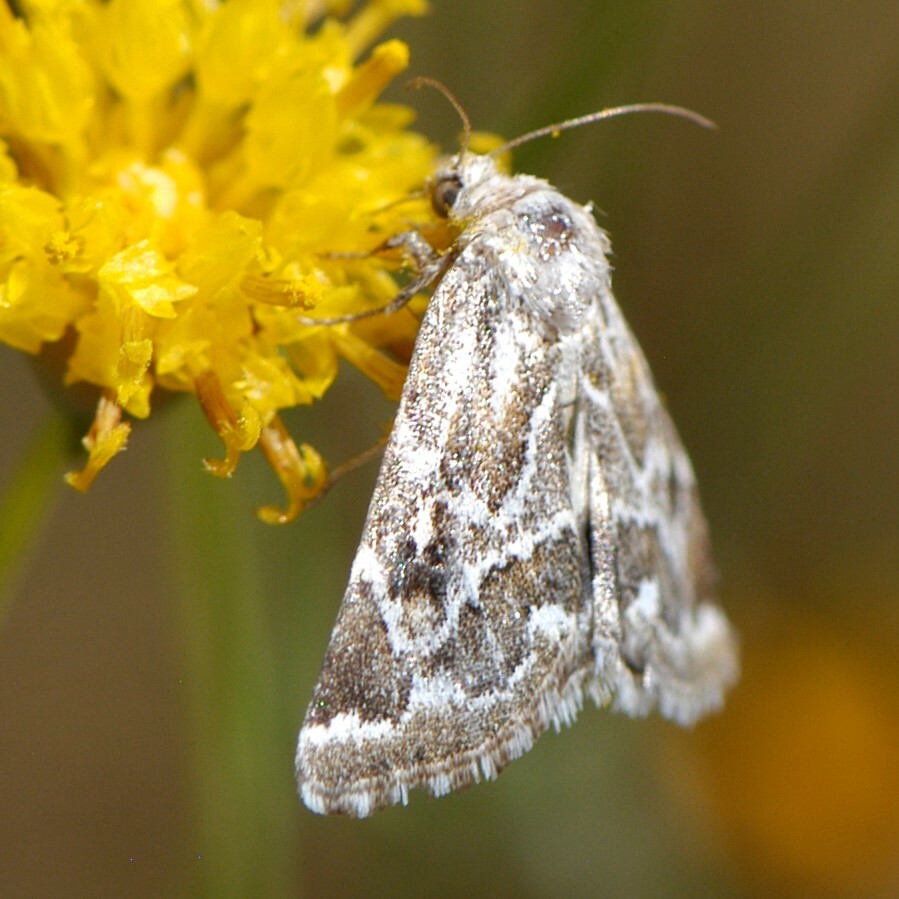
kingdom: Animalia
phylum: Arthropoda
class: Insecta
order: Lepidoptera
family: Noctuidae
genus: Schinia
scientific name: Schinia acutilinea
